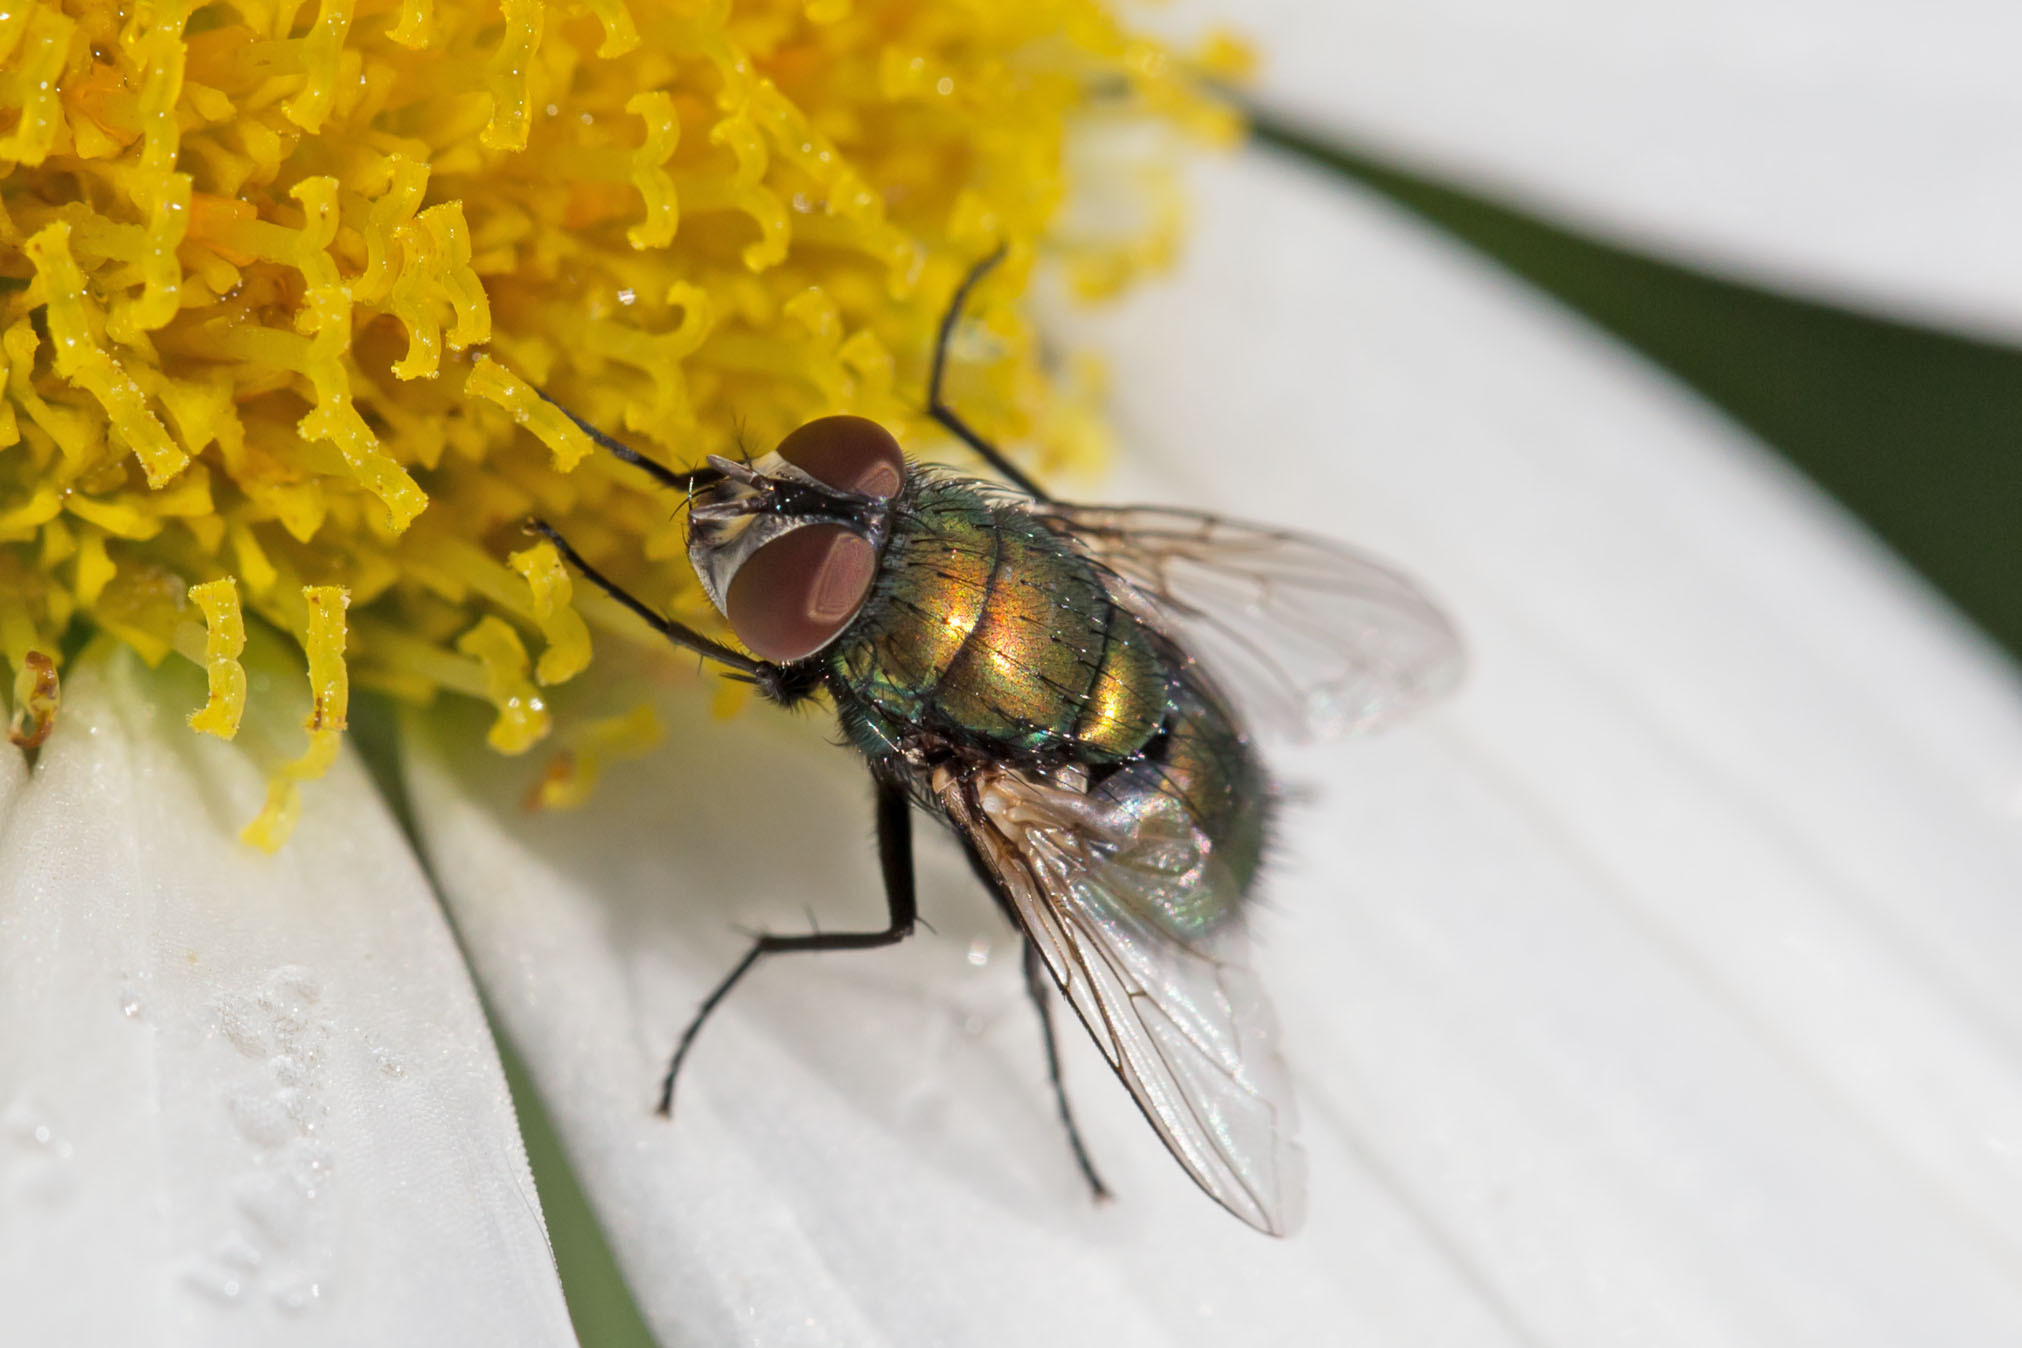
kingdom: Animalia
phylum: Arthropoda
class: Insecta
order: Diptera
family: Calliphoridae
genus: Lucilia
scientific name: Lucilia sericata
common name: Blow fly
